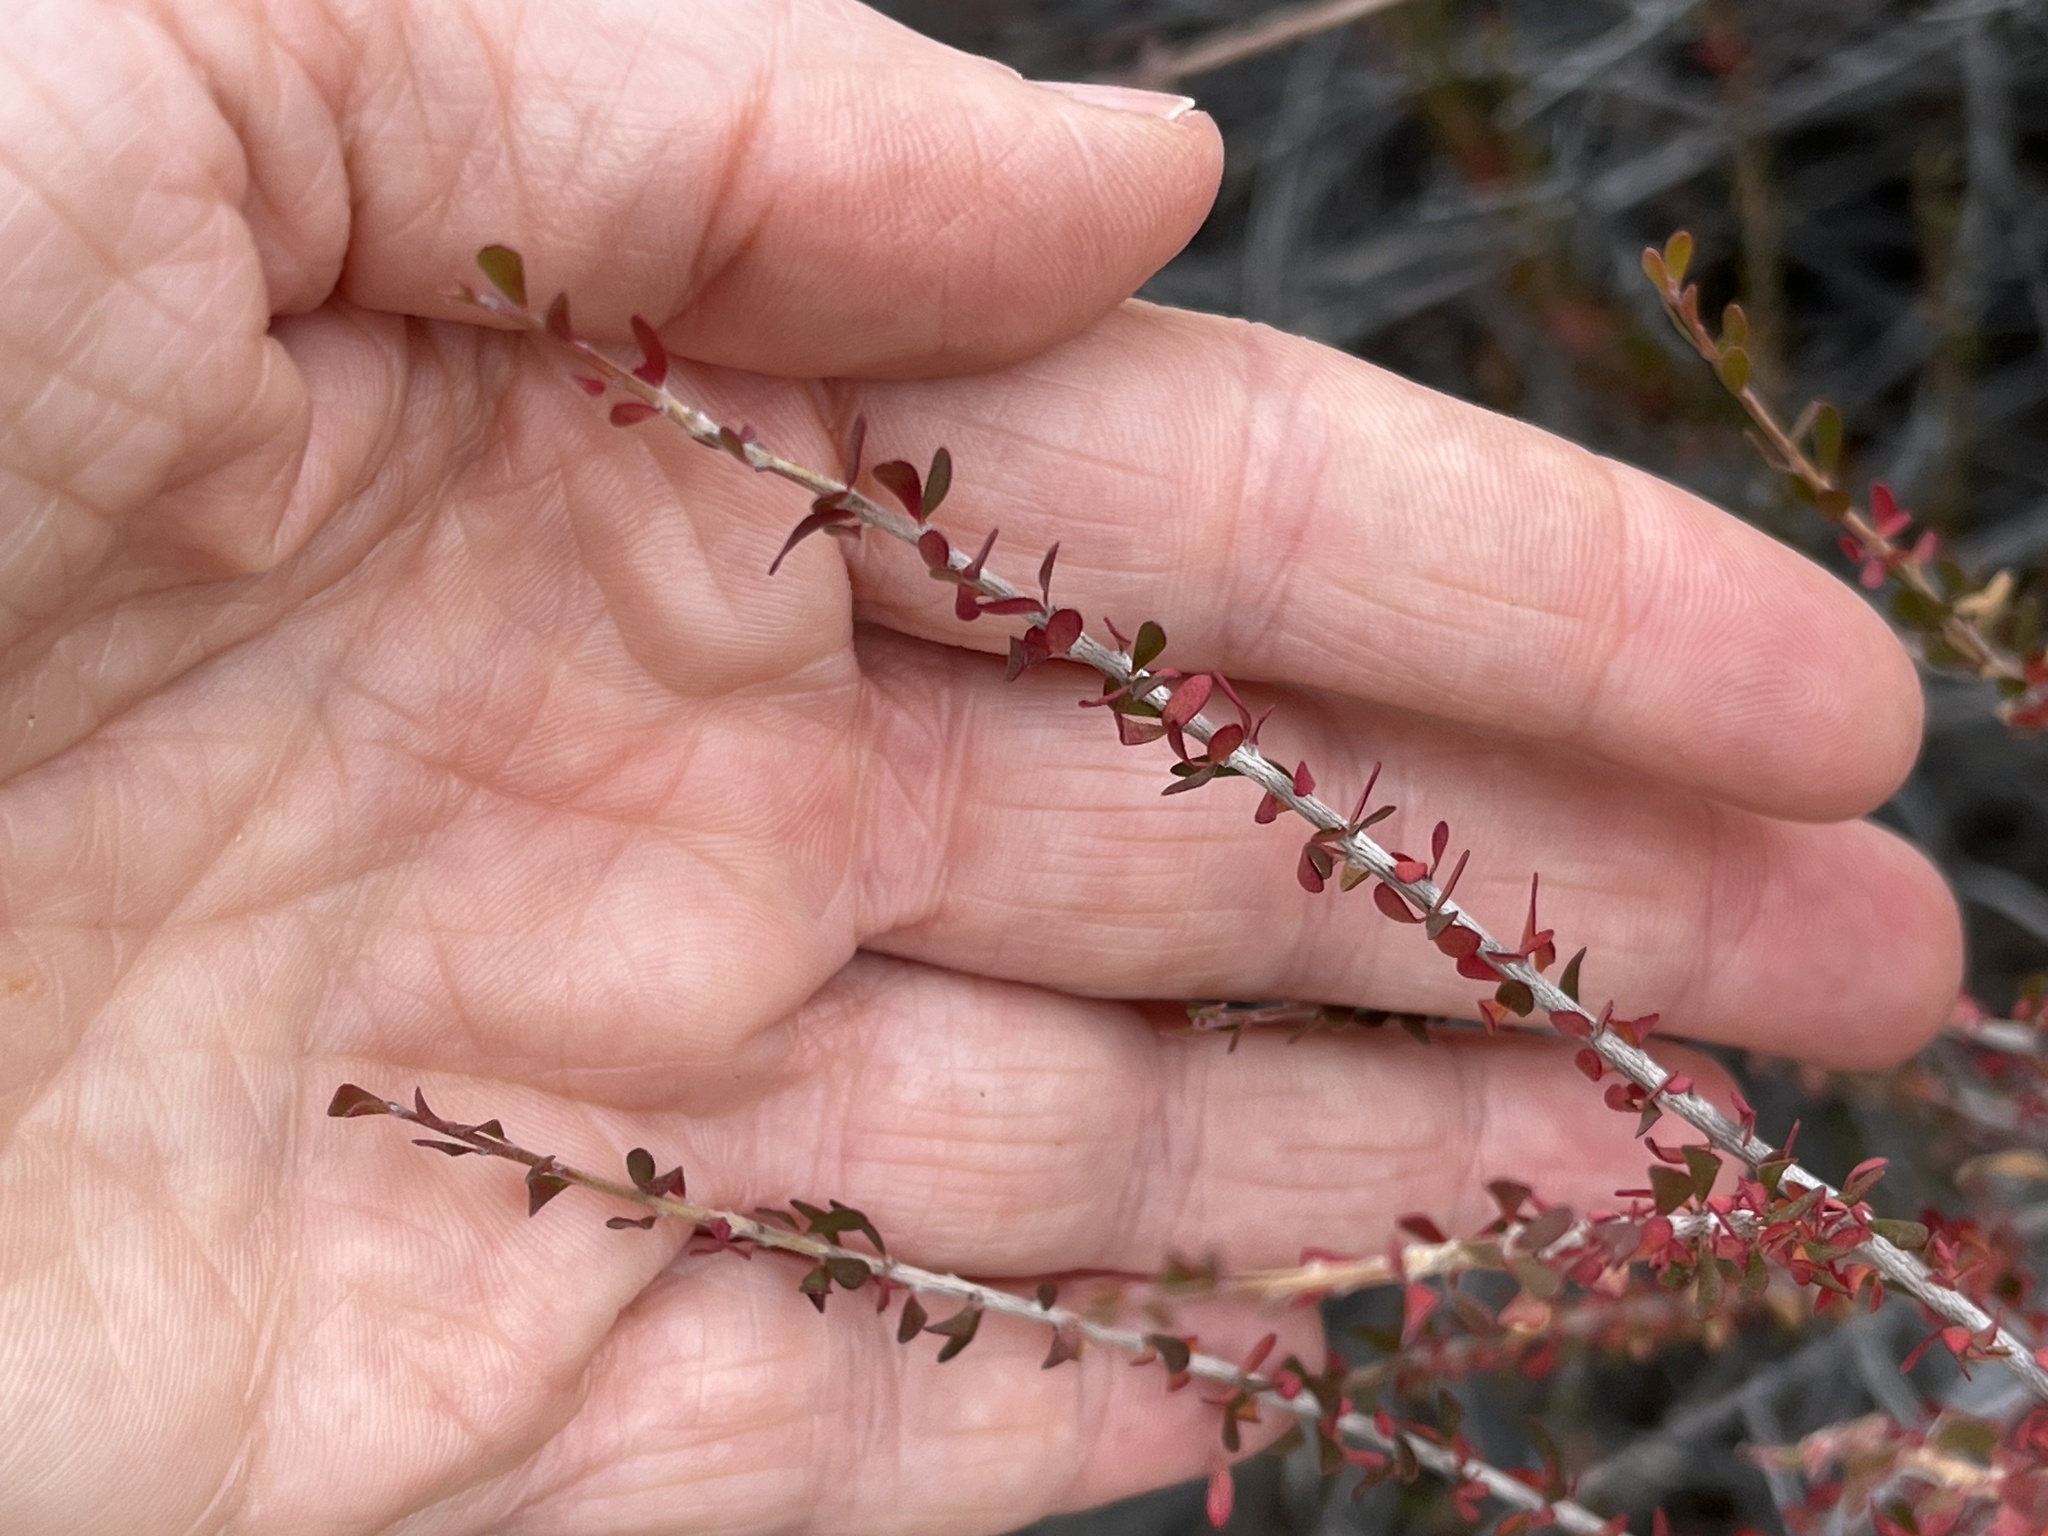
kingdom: Plantae
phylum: Tracheophyta
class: Magnoliopsida
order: Malpighiales
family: Picrodendraceae
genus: Tetracoccus
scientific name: Tetracoccus hallii
